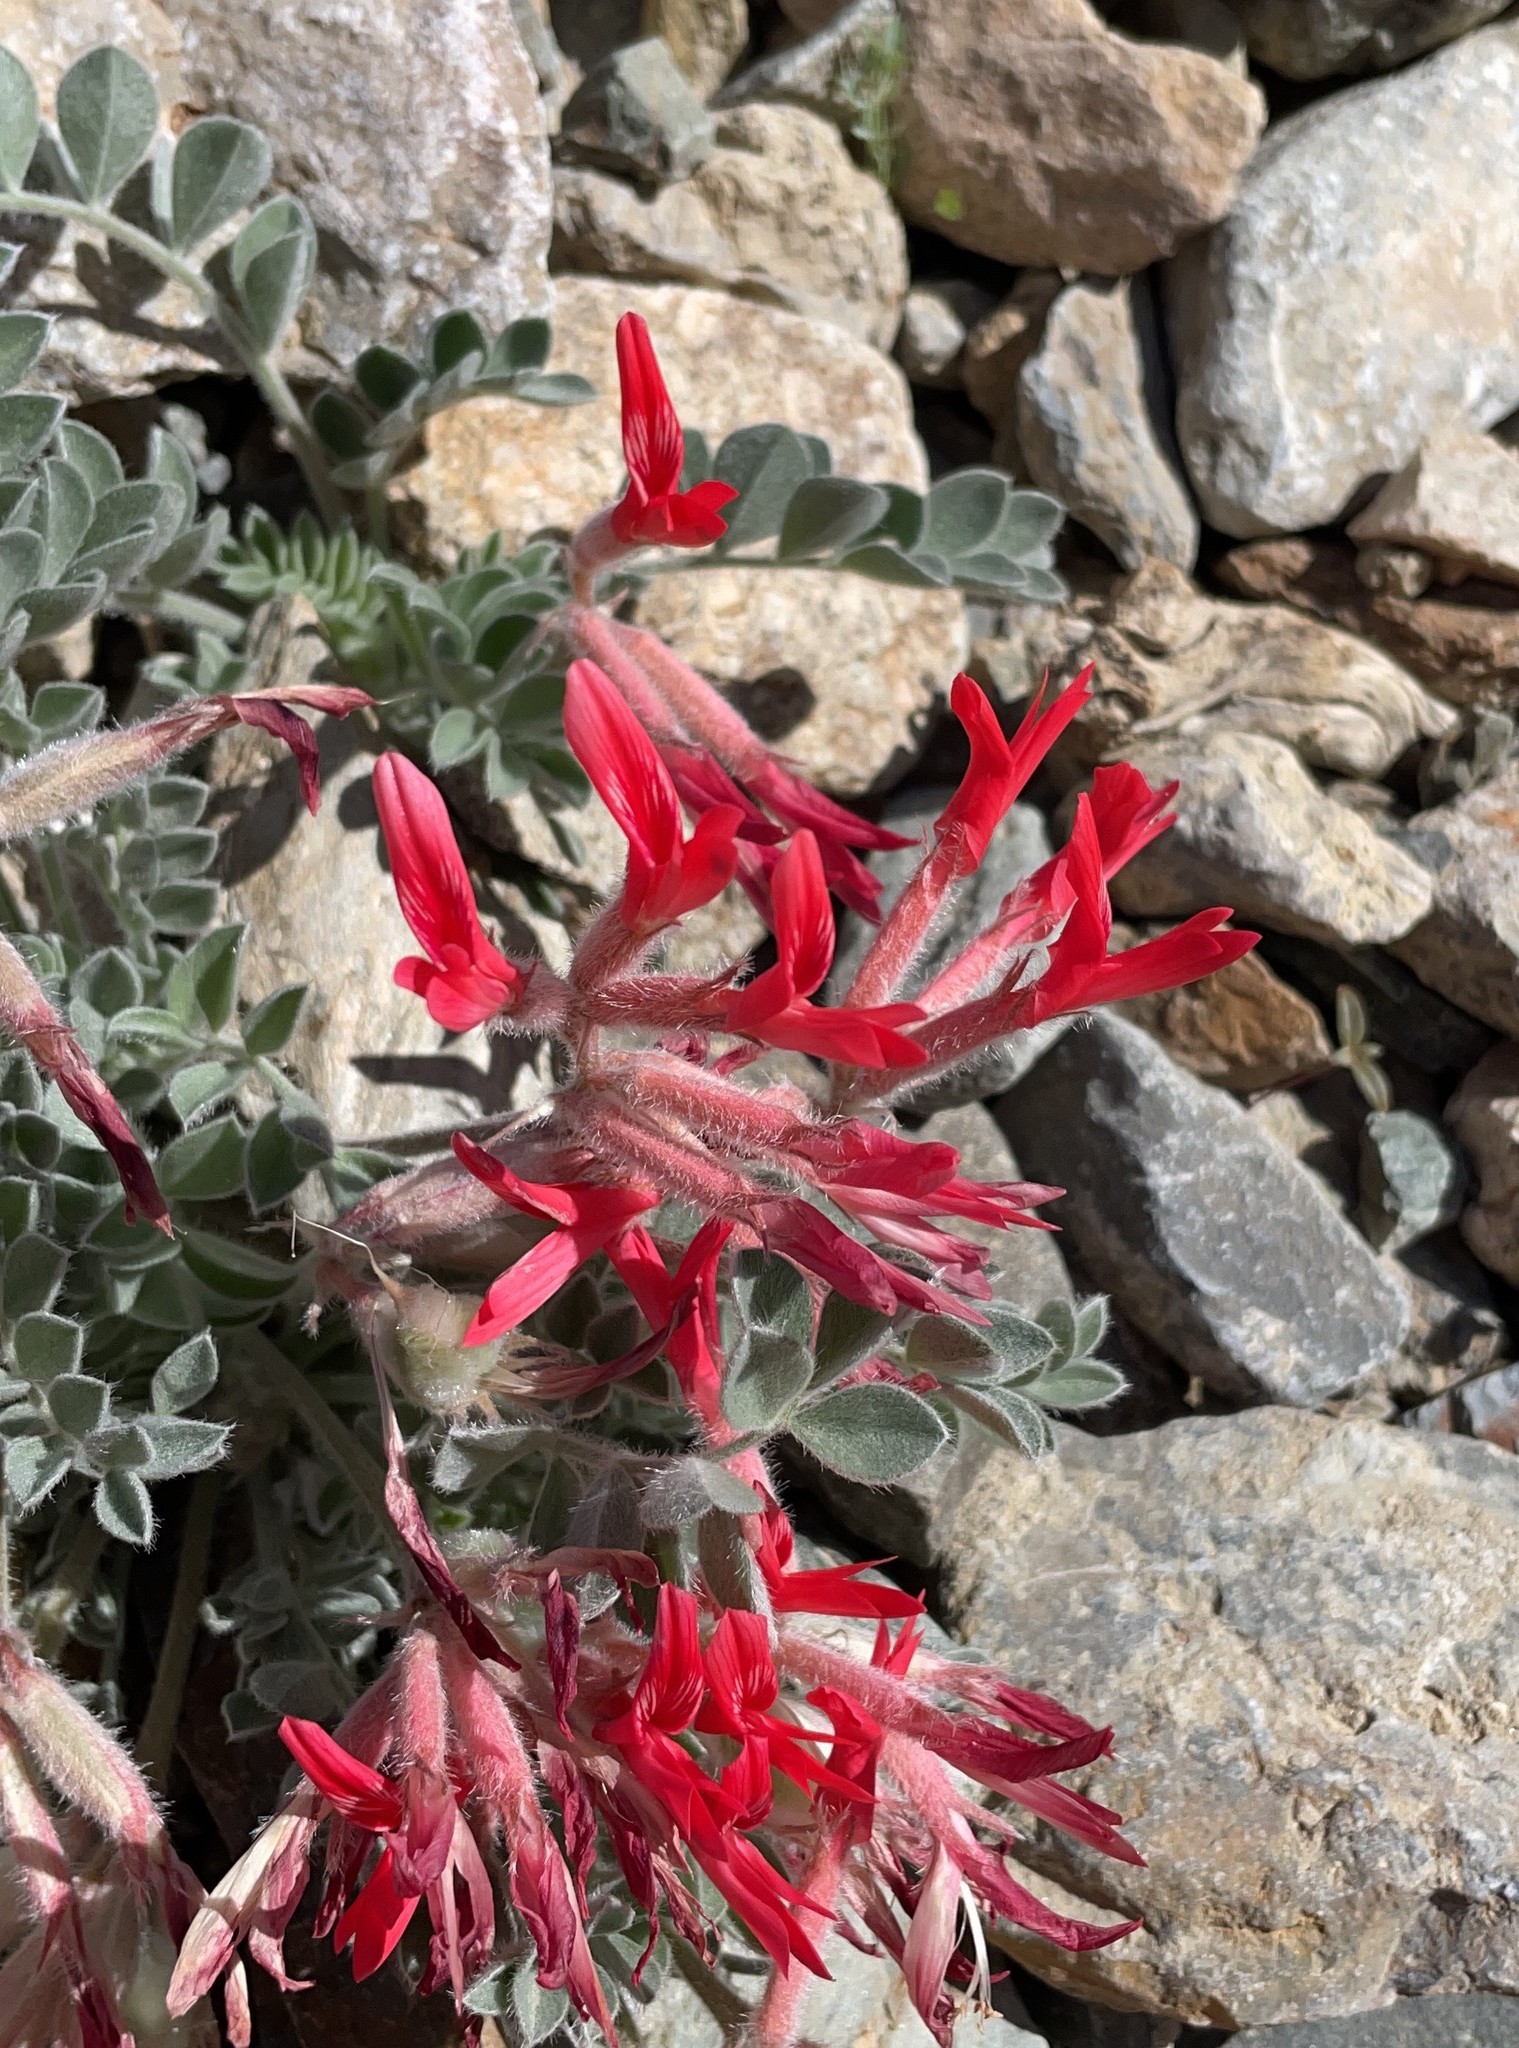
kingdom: Plantae
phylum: Tracheophyta
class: Magnoliopsida
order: Fabales
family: Fabaceae
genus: Astragalus
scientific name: Astragalus coccineus
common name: Scarlet milk-vetch
